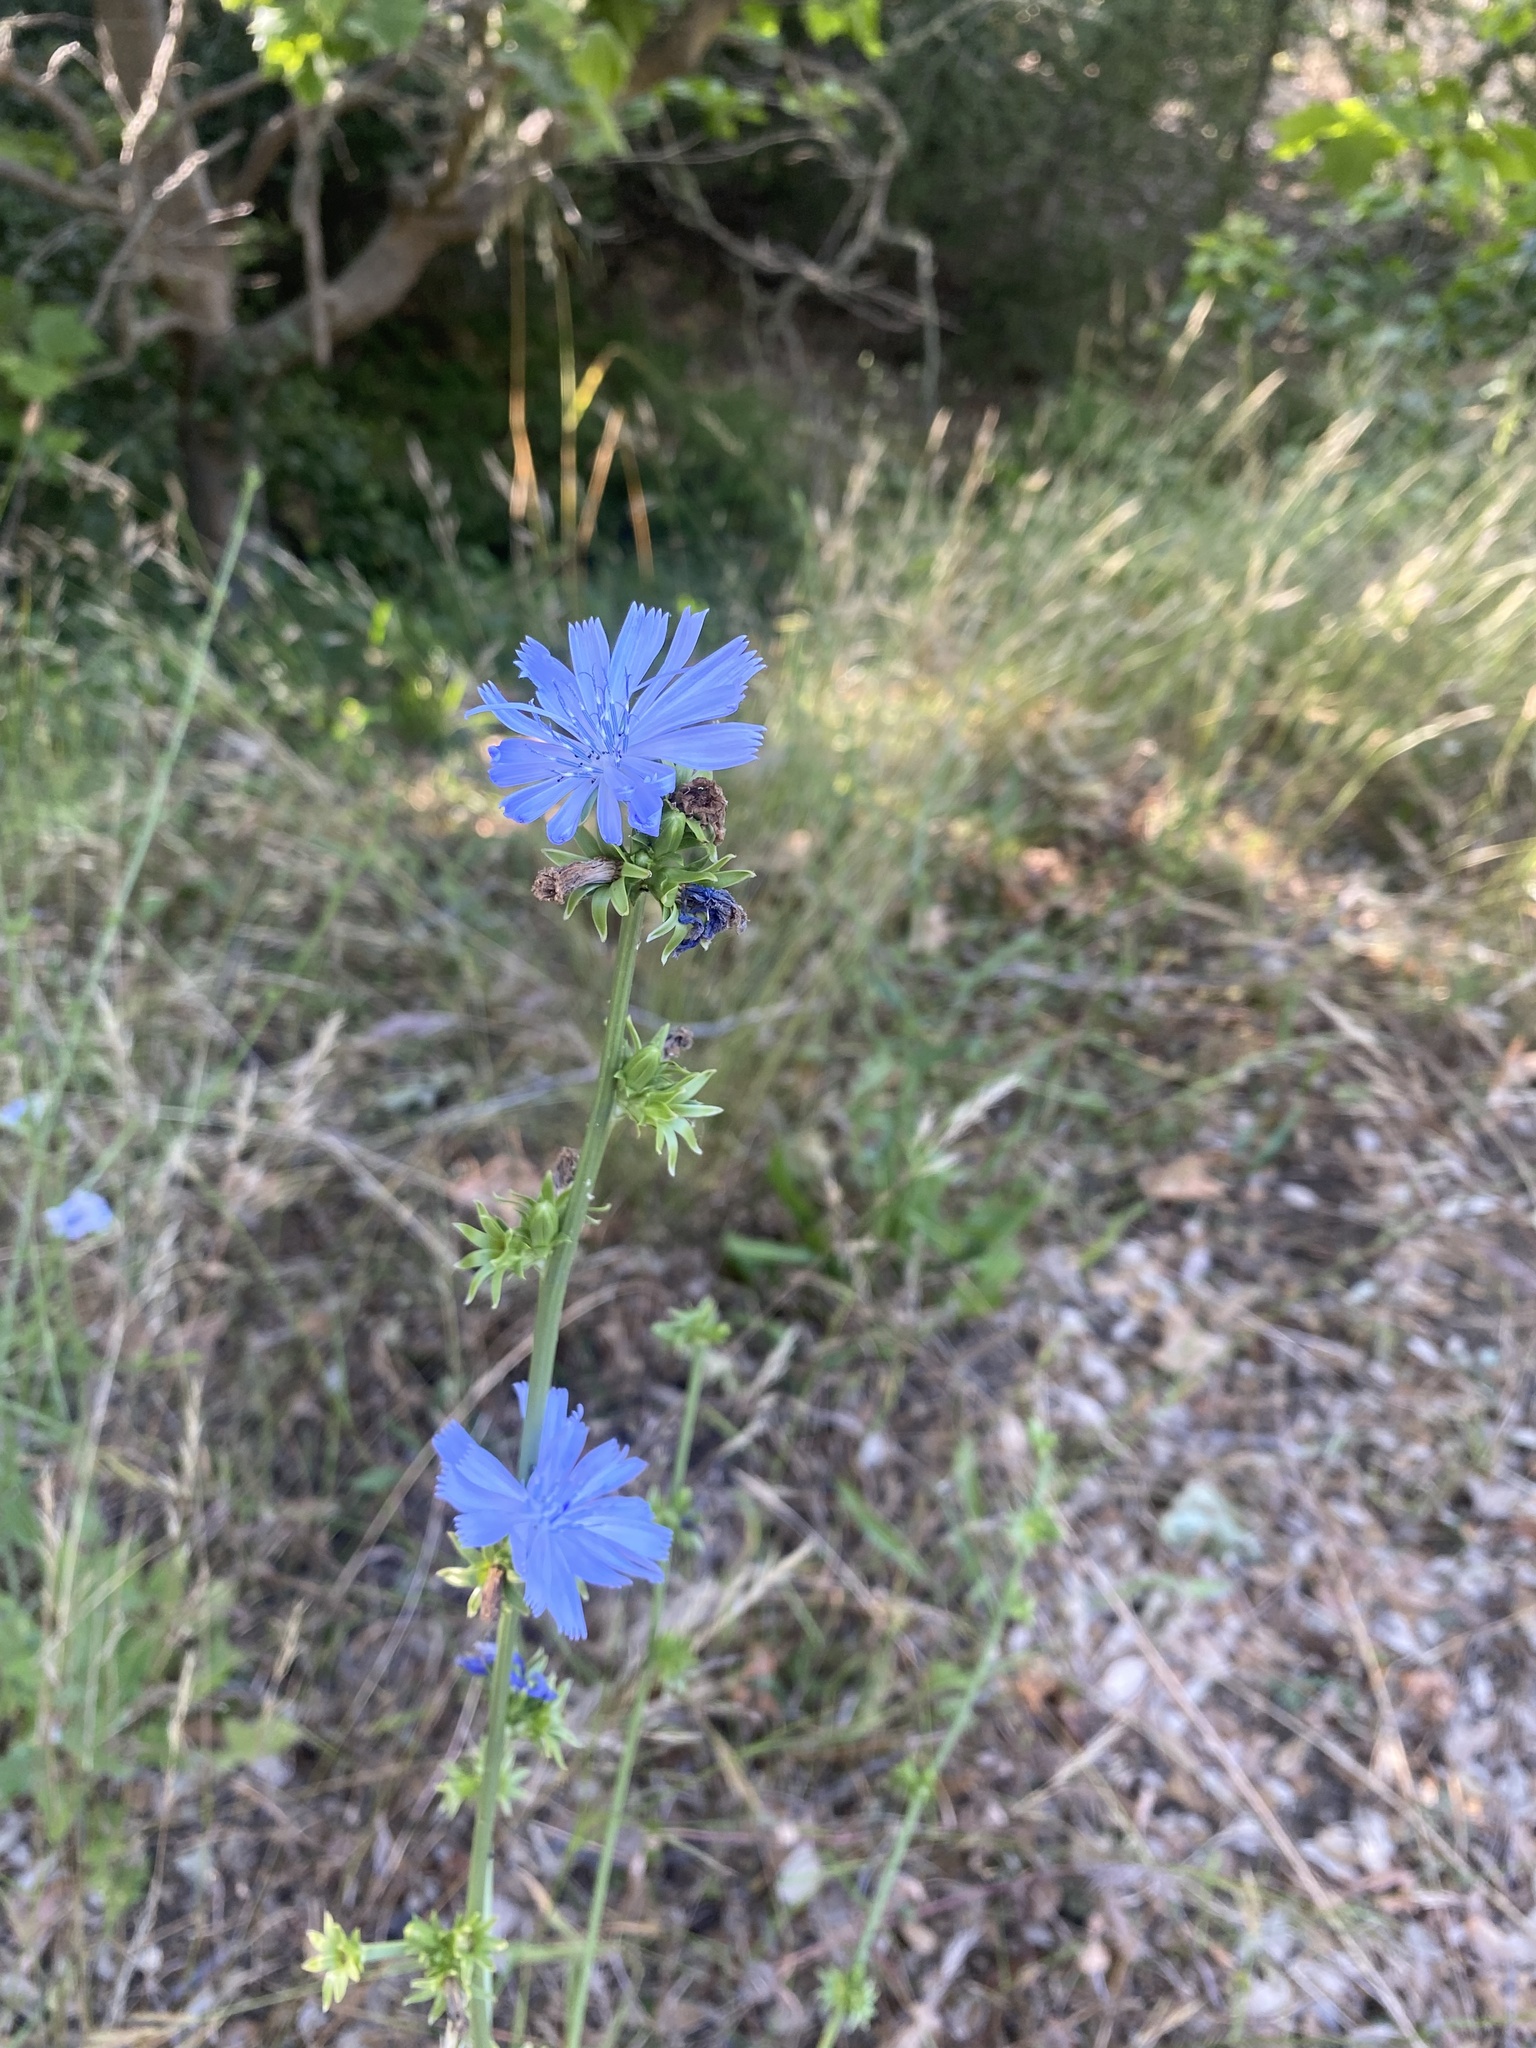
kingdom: Plantae
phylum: Tracheophyta
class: Magnoliopsida
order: Asterales
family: Asteraceae
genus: Cichorium
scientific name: Cichorium intybus
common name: Chicory
